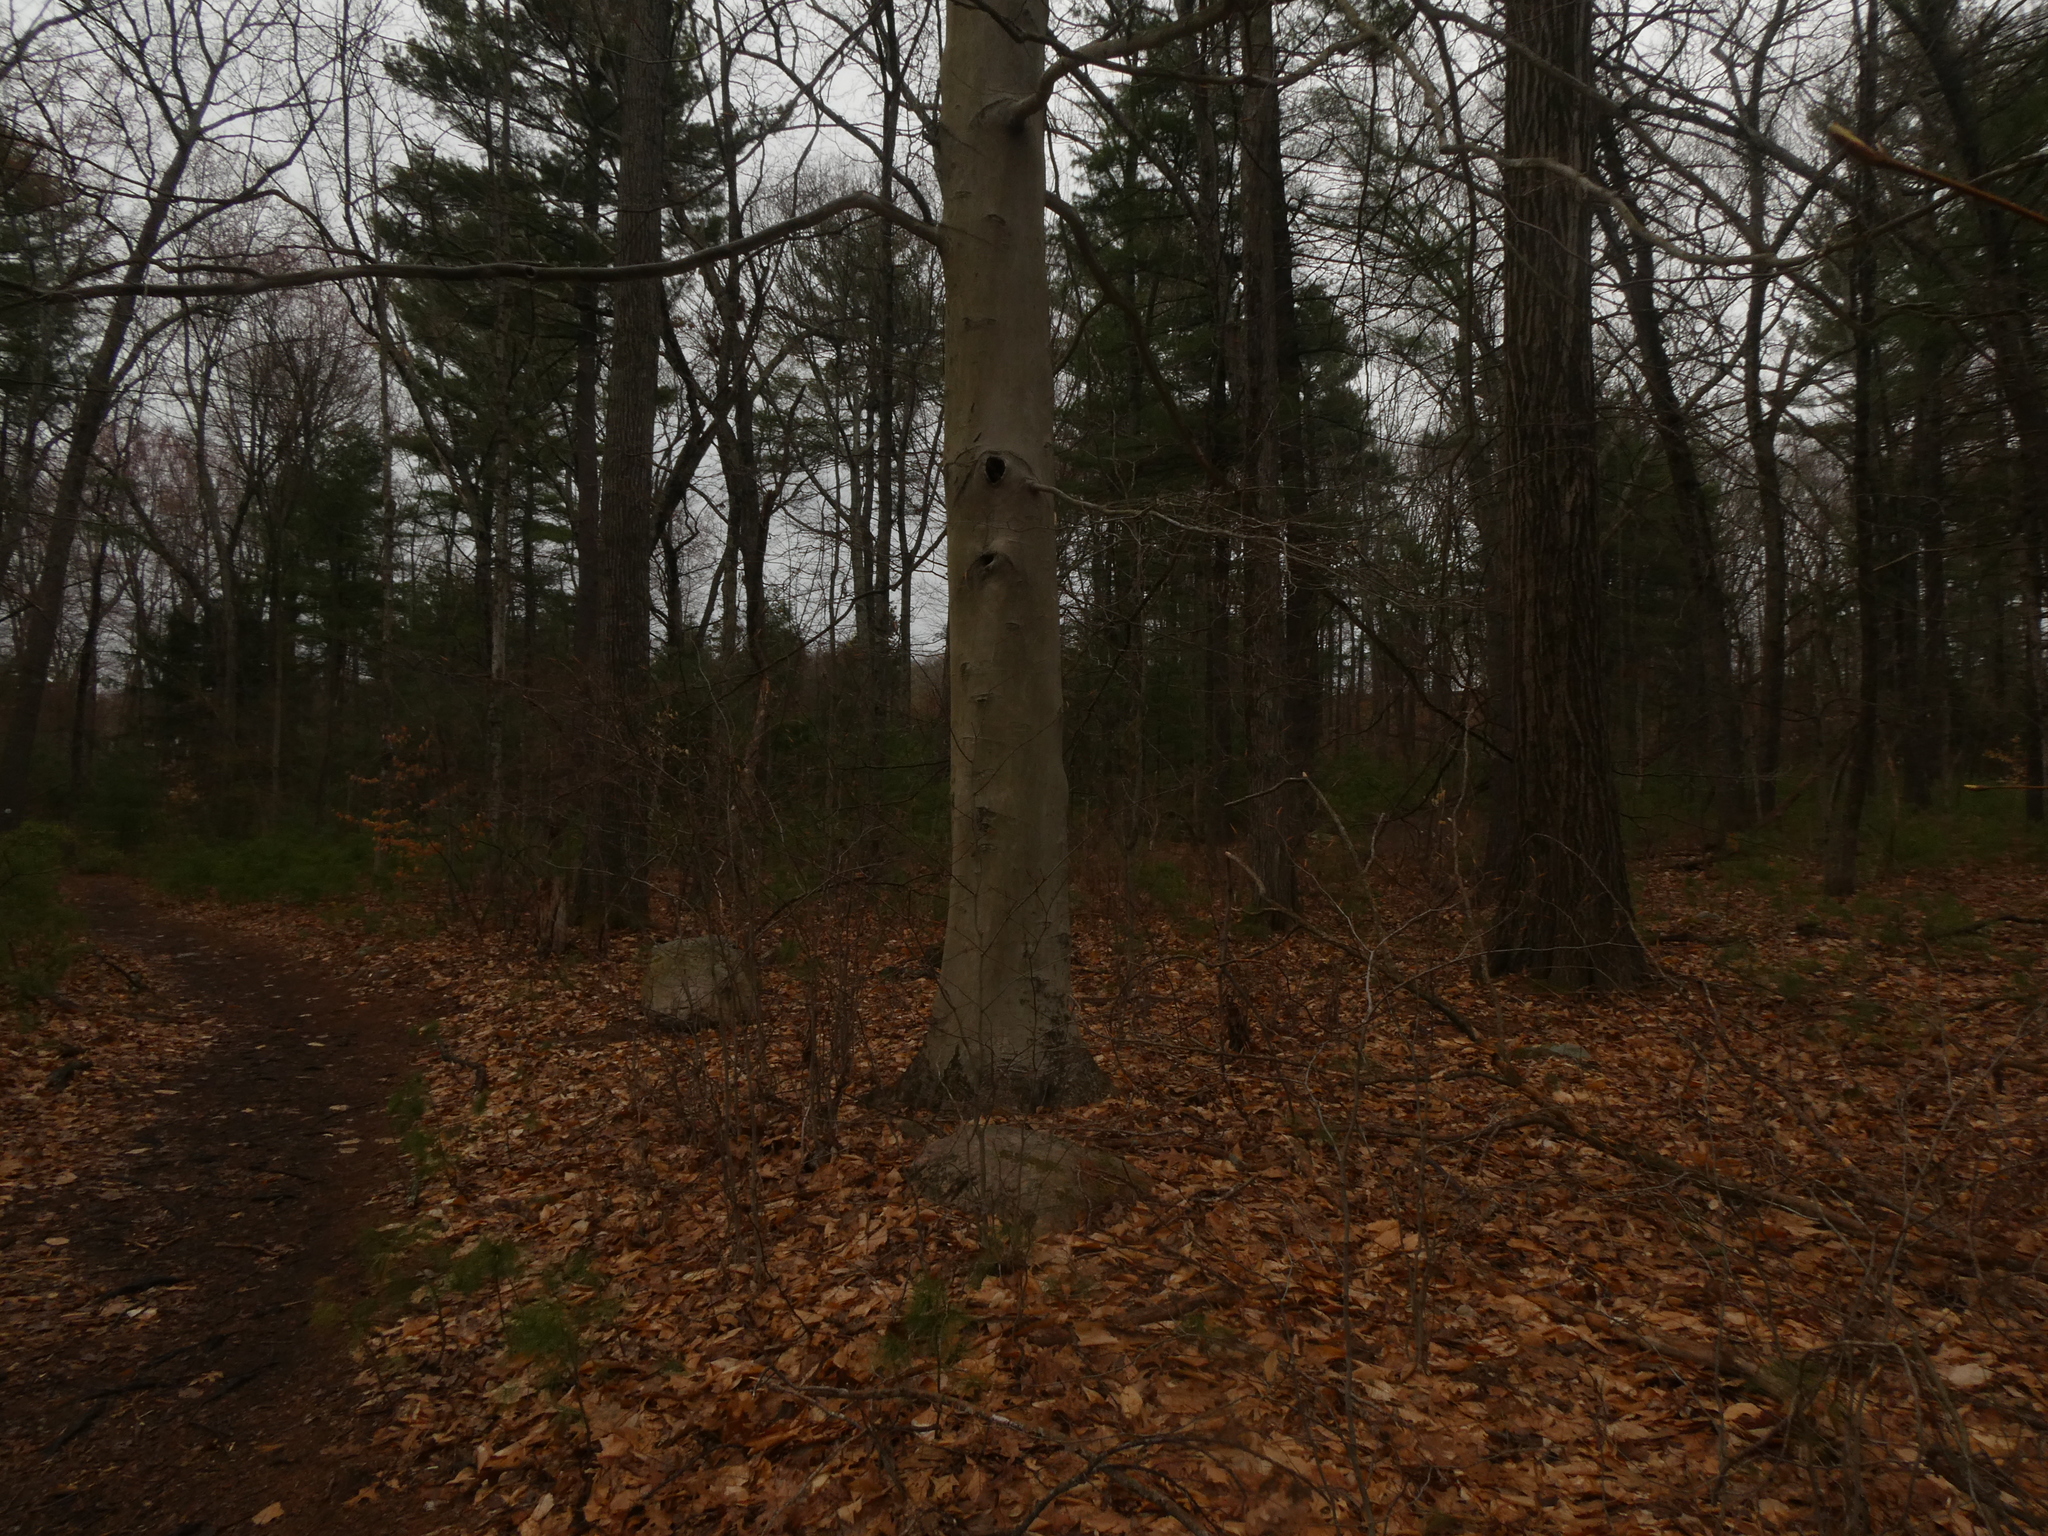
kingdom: Plantae
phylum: Tracheophyta
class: Magnoliopsida
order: Fagales
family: Fagaceae
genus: Fagus
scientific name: Fagus grandifolia
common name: American beech
